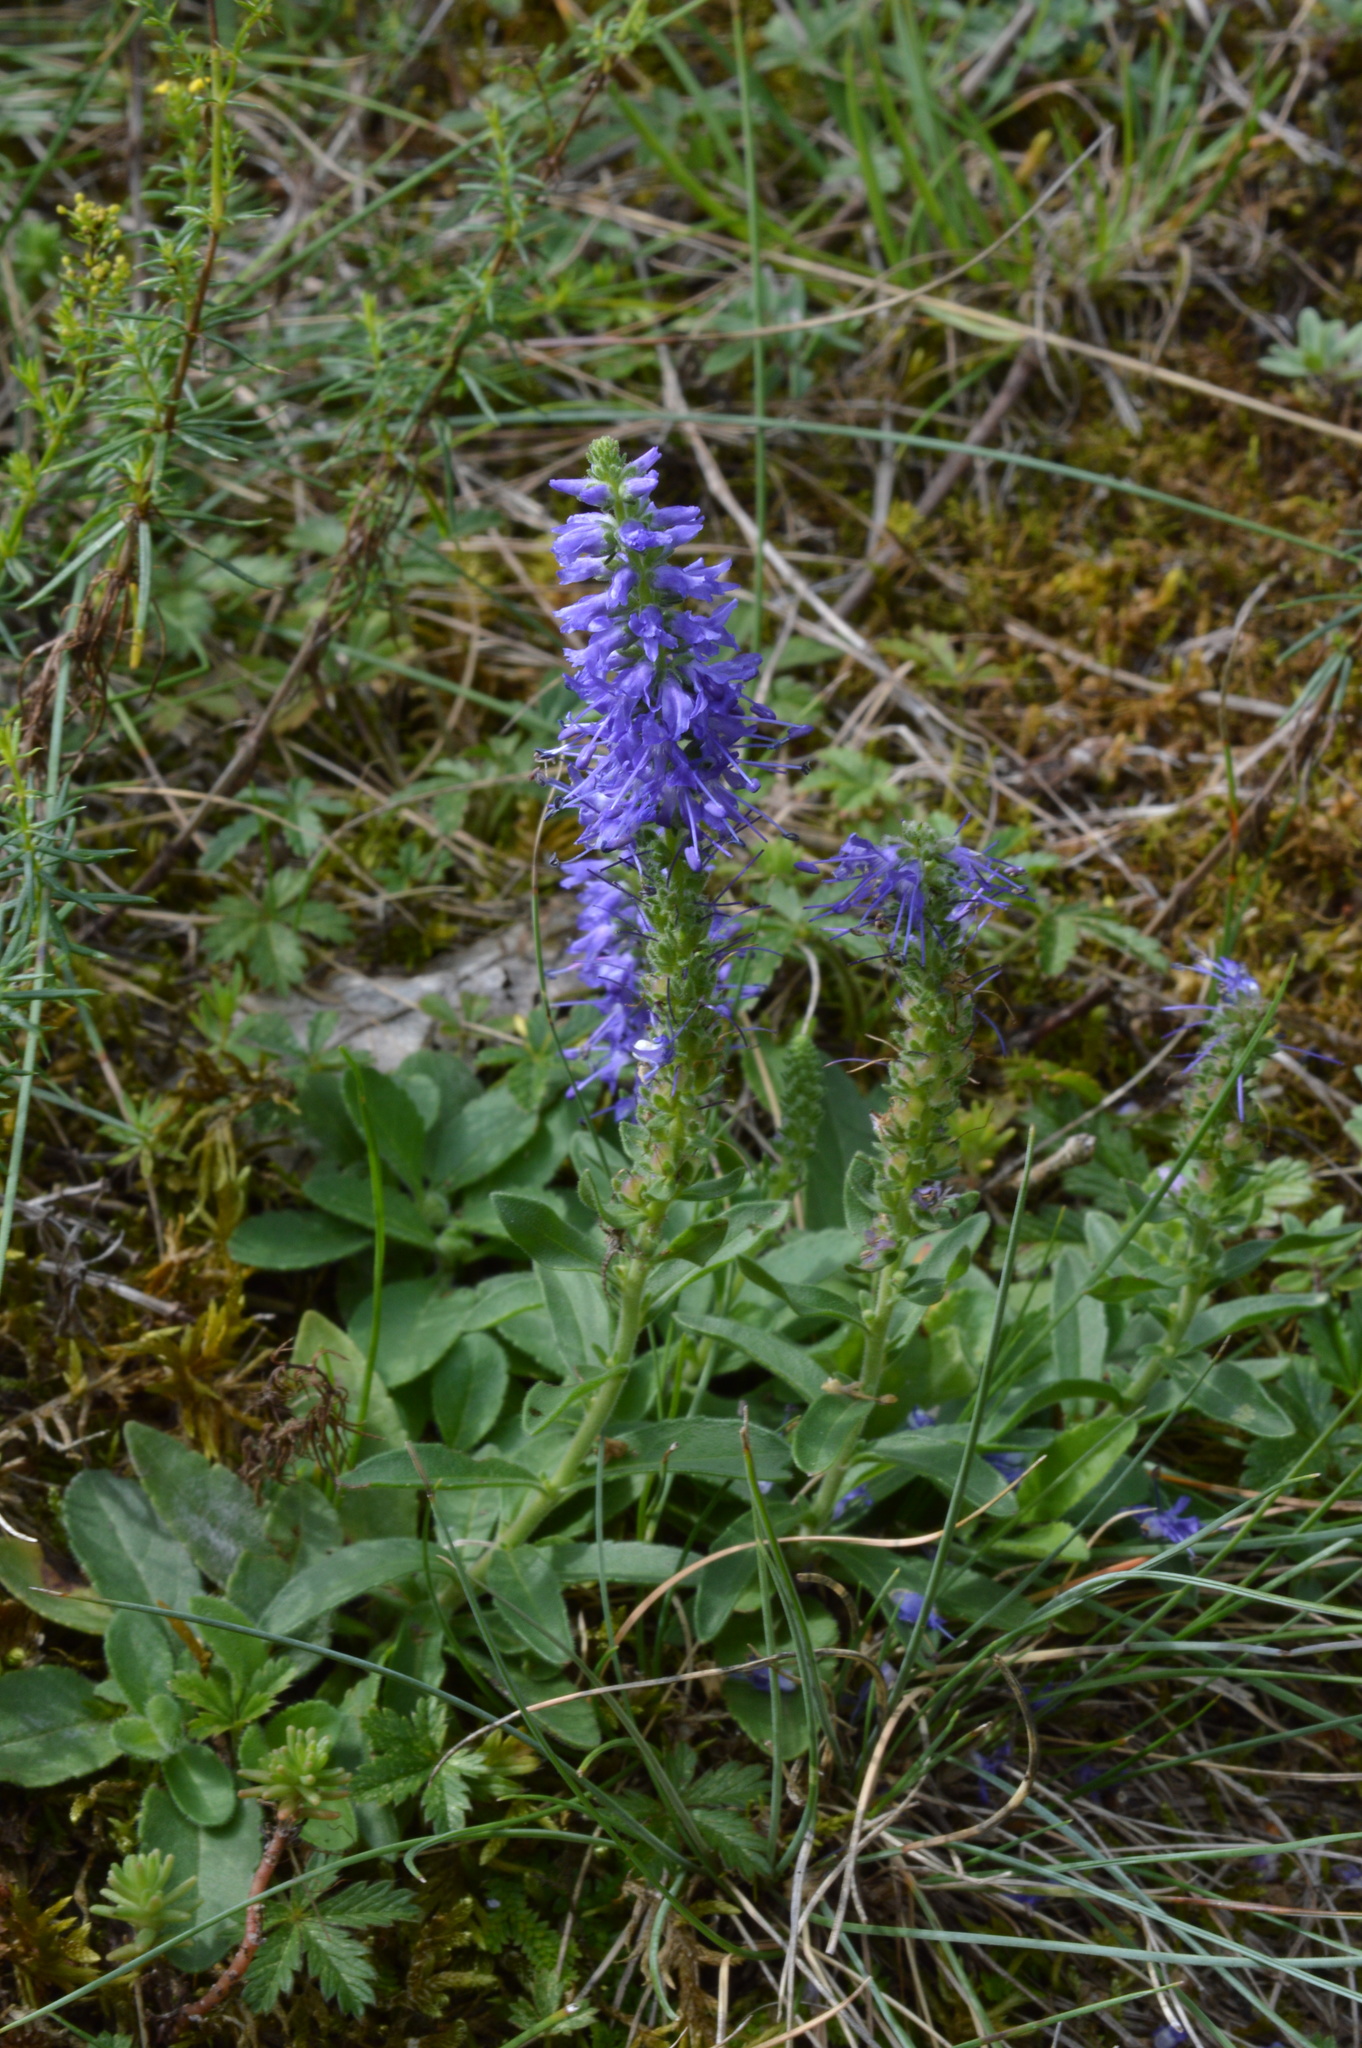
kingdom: Plantae
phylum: Tracheophyta
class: Magnoliopsida
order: Lamiales
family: Plantaginaceae
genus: Veronica
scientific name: Veronica spicata
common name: Spiked speedwell
